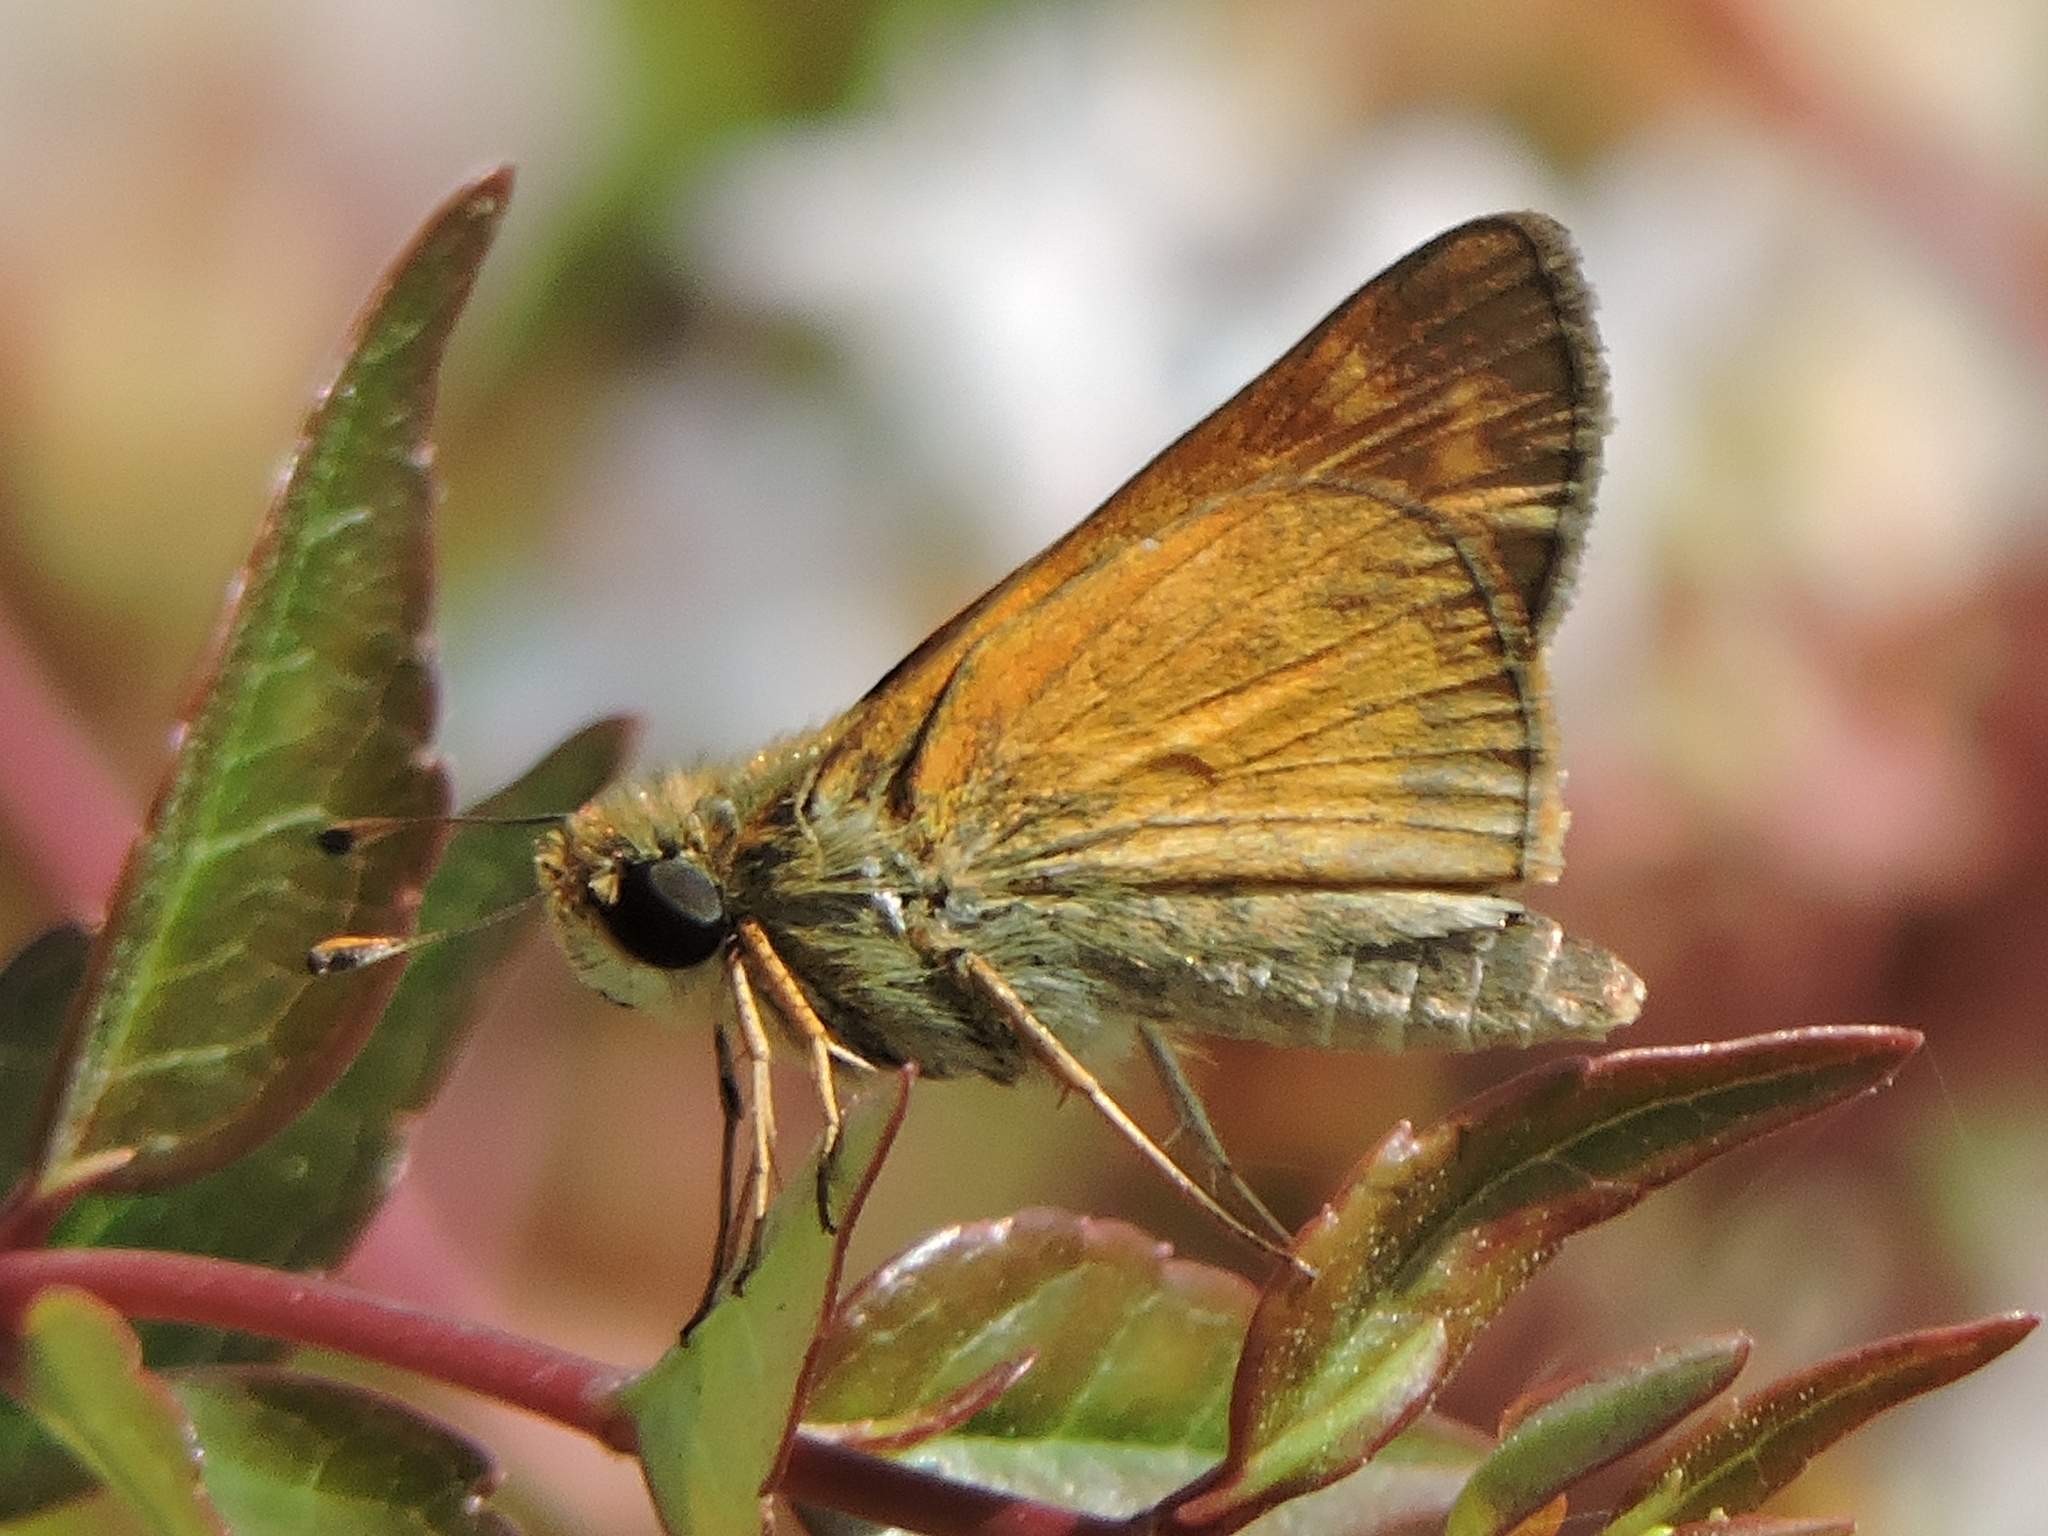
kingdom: Animalia
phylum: Arthropoda
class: Insecta
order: Lepidoptera
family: Hesperiidae
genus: Atalopedes
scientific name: Atalopedes
